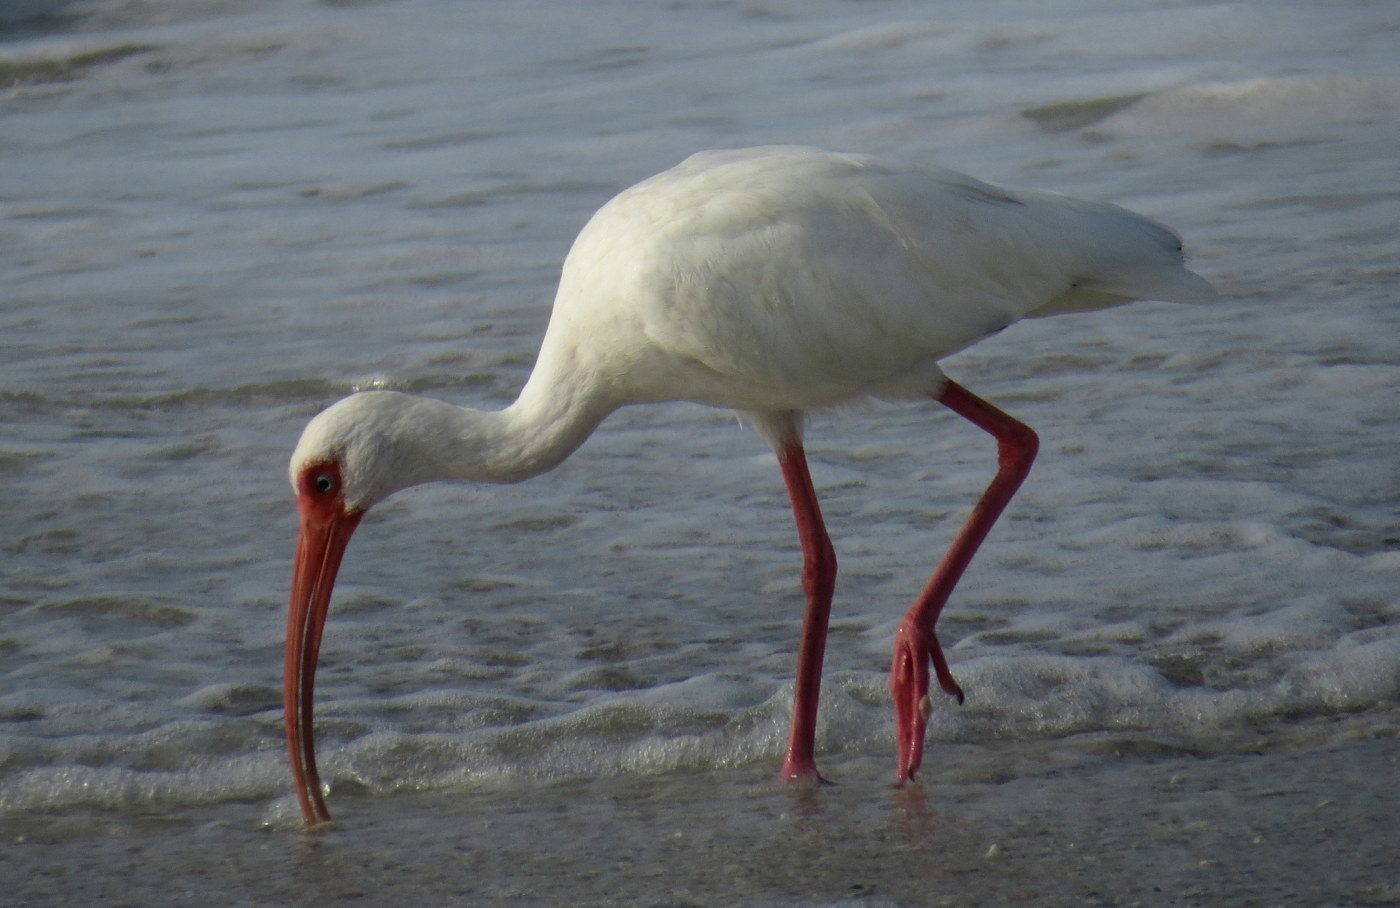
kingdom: Animalia
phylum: Chordata
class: Aves
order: Pelecaniformes
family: Threskiornithidae
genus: Eudocimus
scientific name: Eudocimus albus
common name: White ibis
